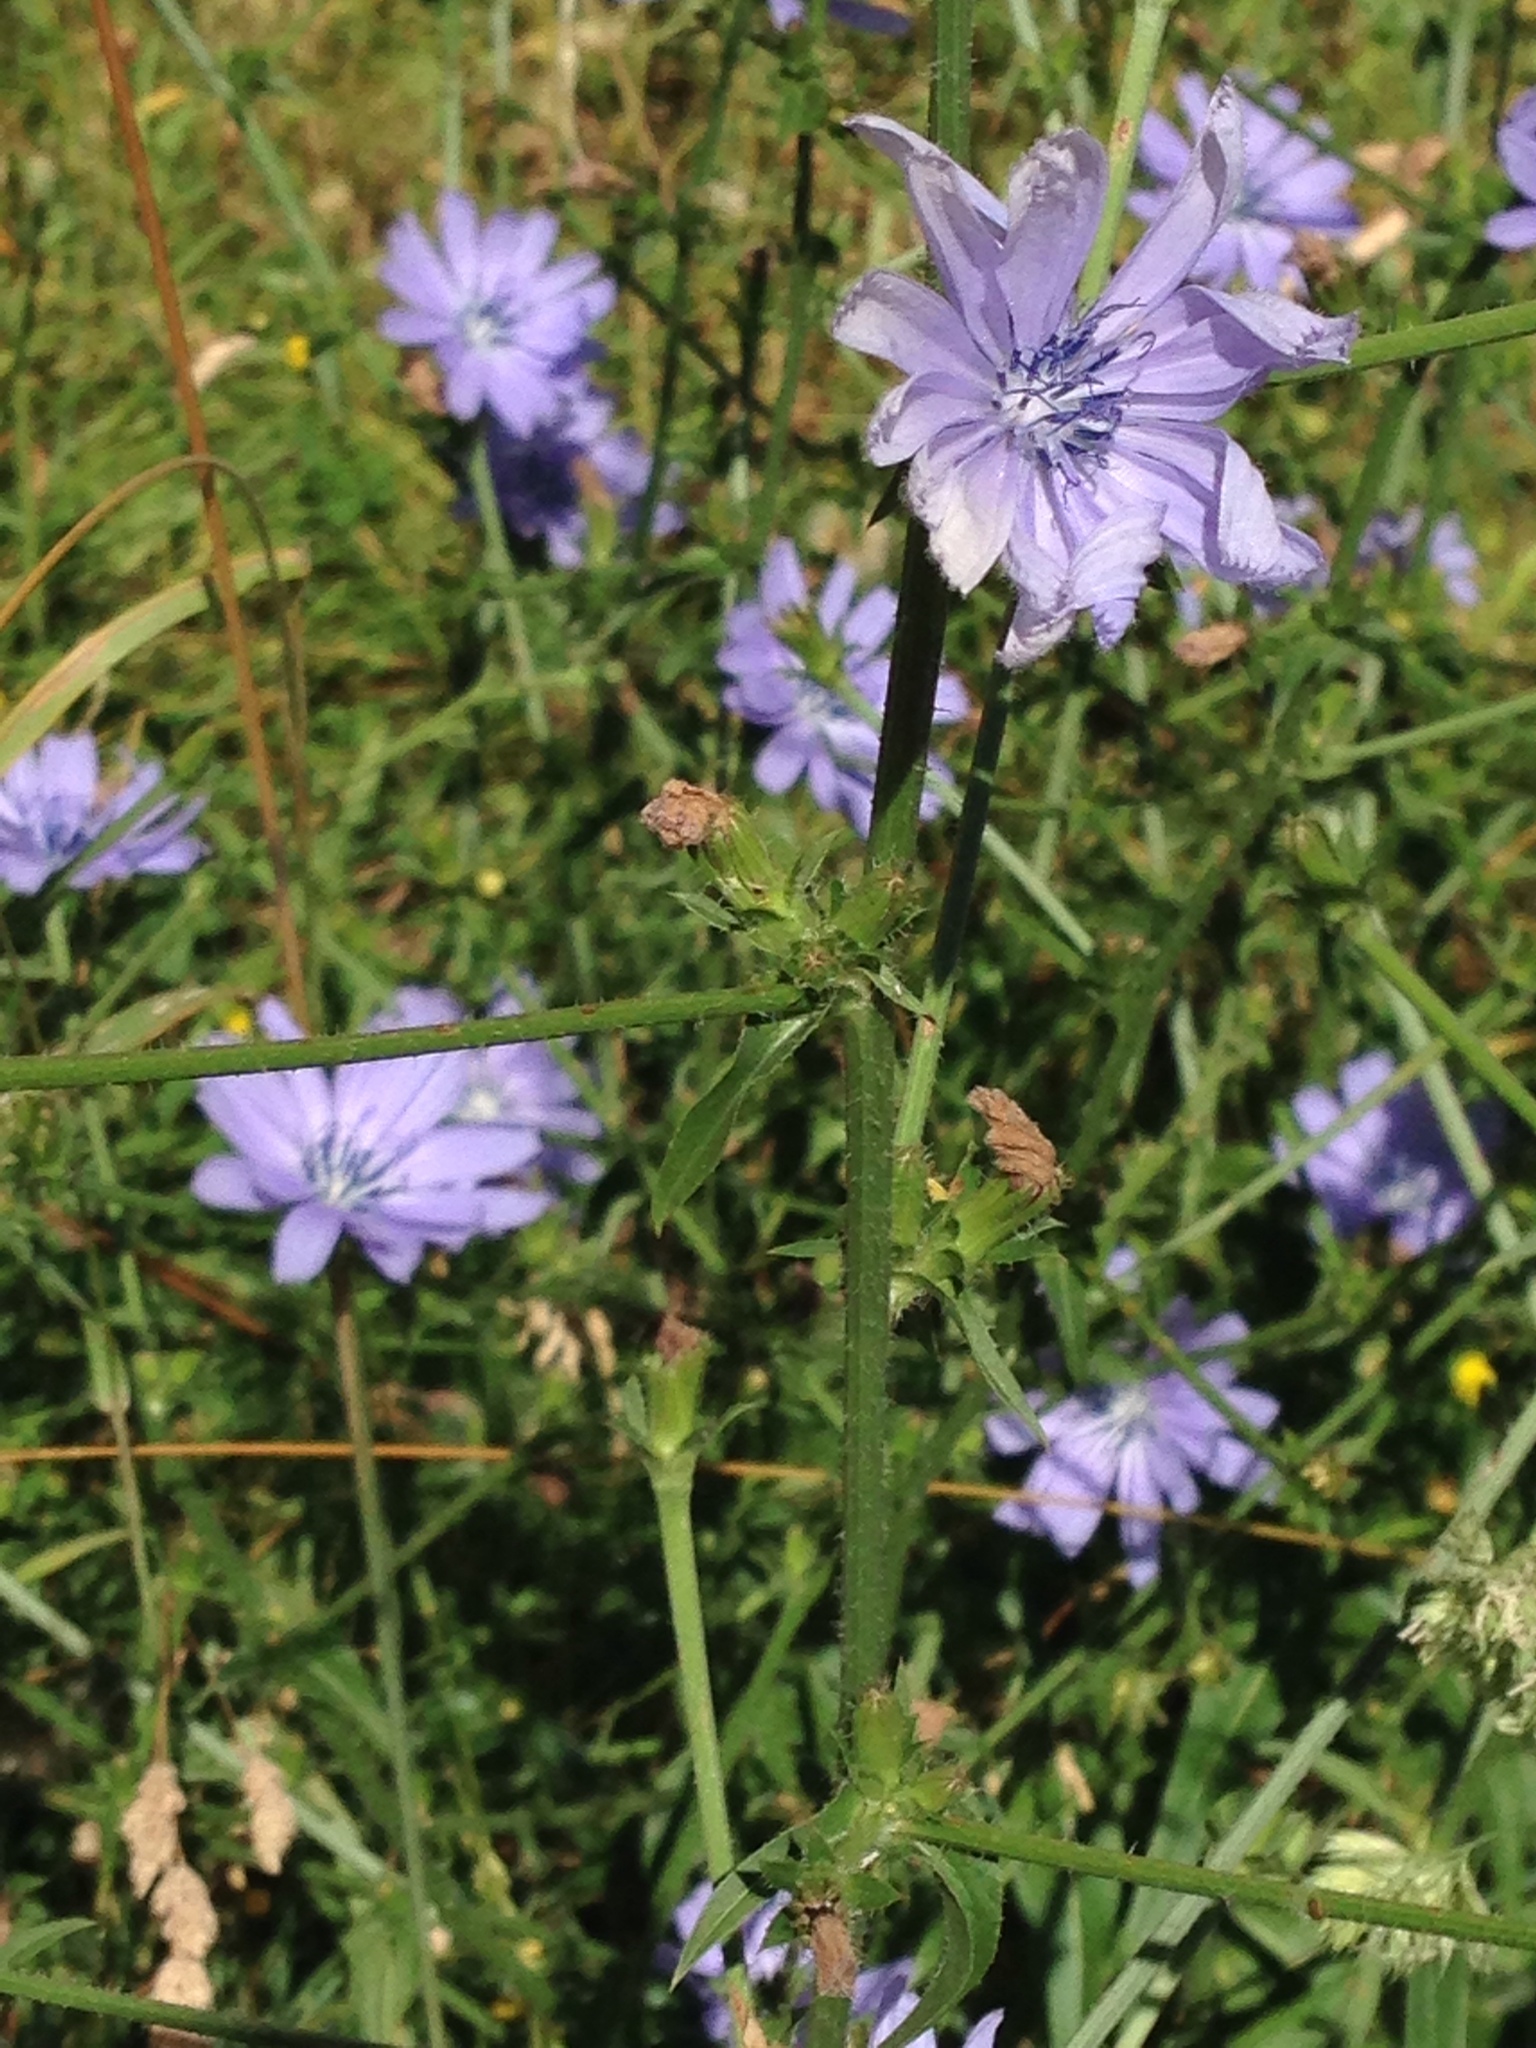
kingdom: Plantae
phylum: Tracheophyta
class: Magnoliopsida
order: Asterales
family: Asteraceae
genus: Cichorium
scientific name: Cichorium intybus
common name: Chicory
